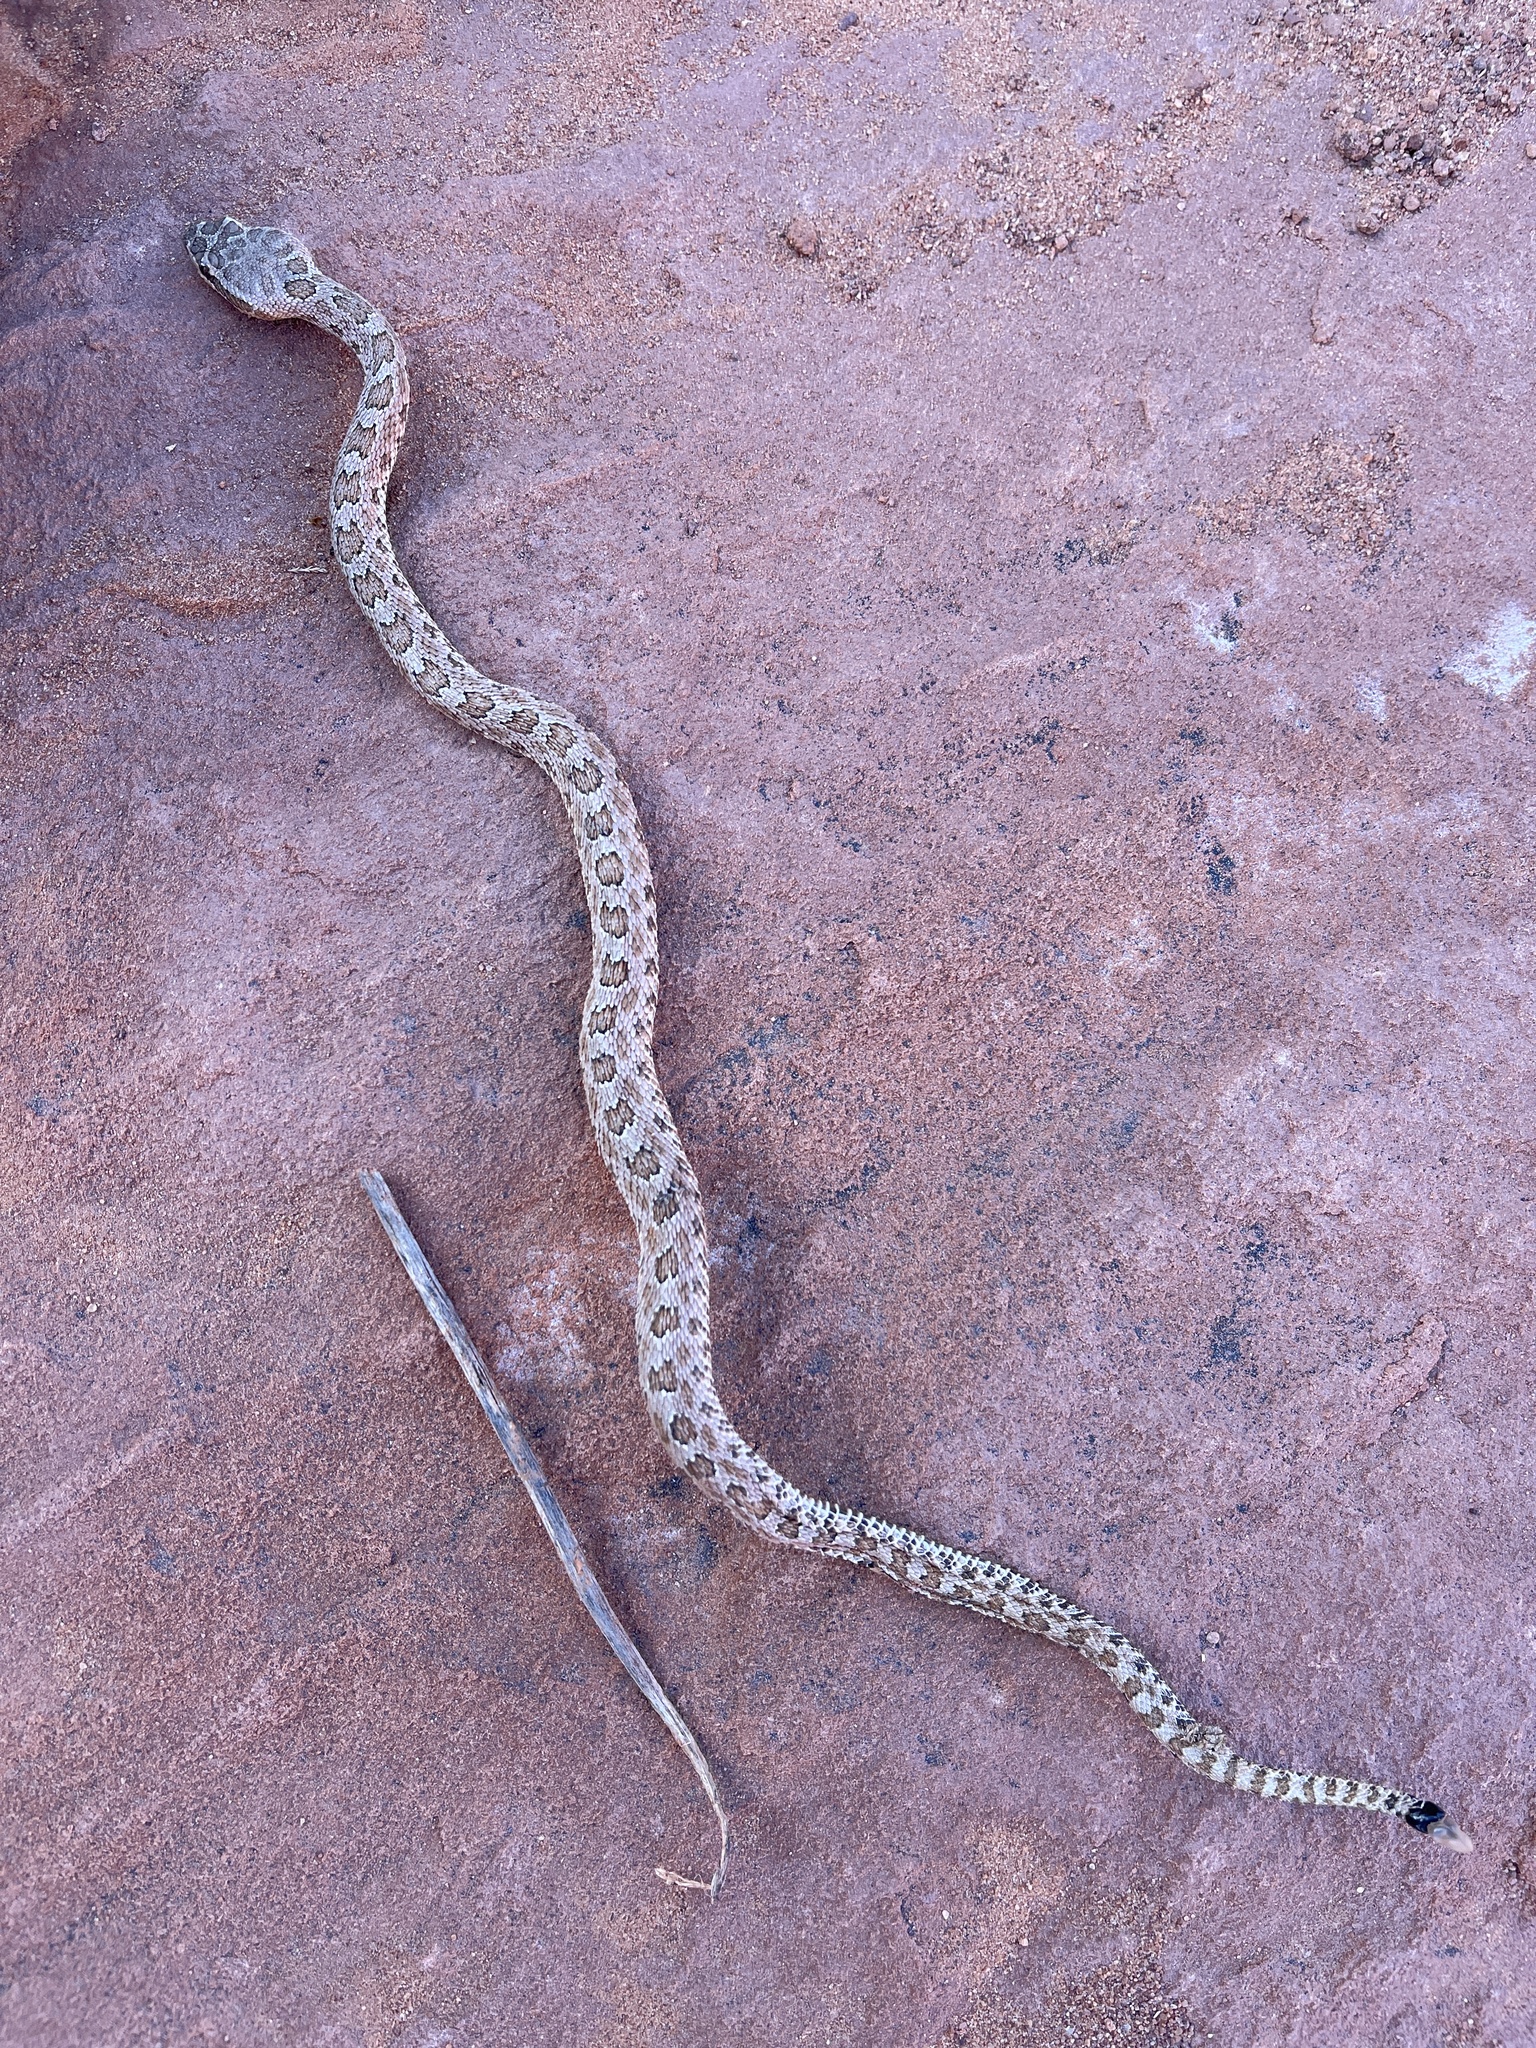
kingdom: Animalia
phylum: Chordata
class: Squamata
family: Viperidae
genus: Crotalus
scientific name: Crotalus oreganus
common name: Abyssus
